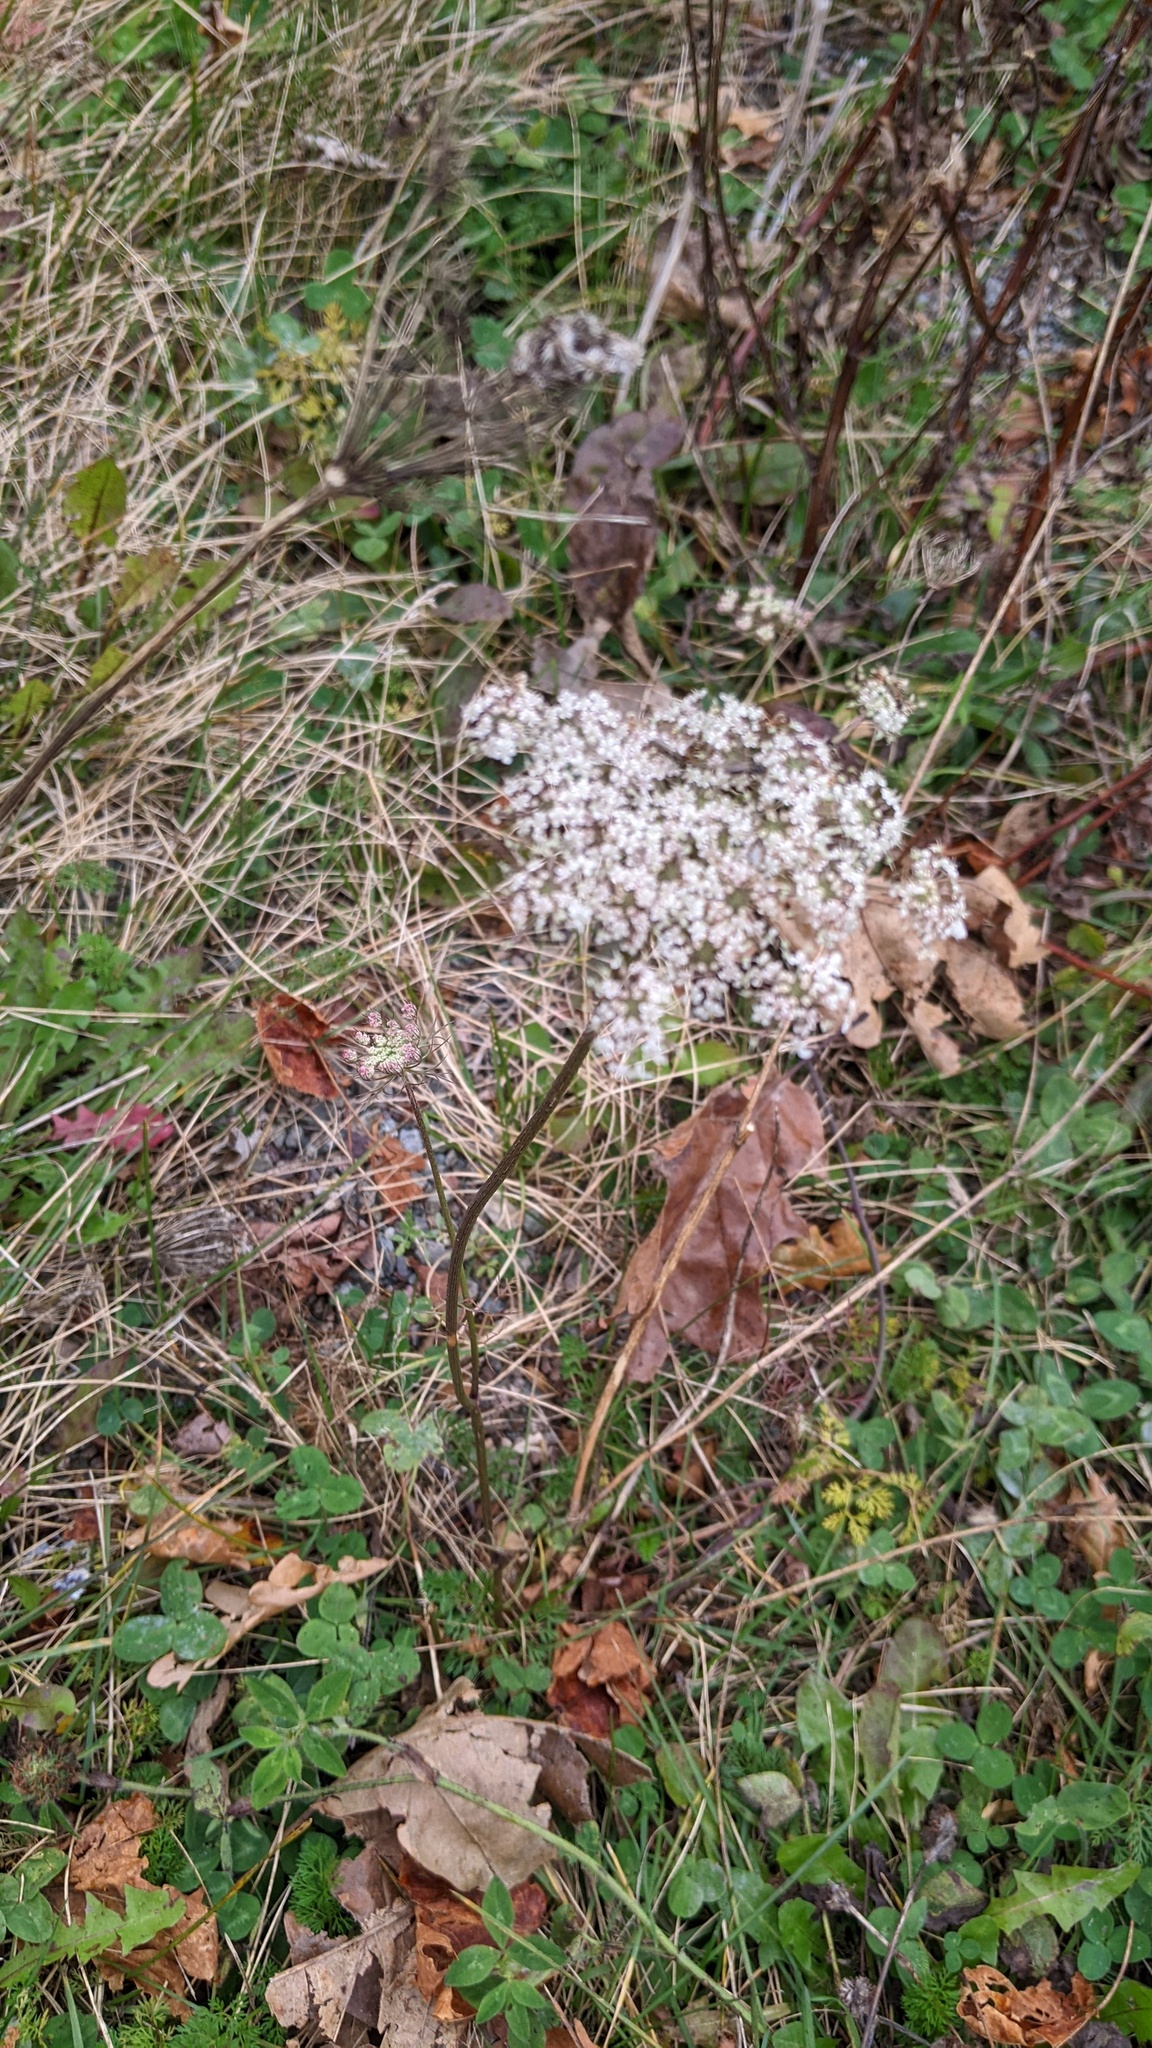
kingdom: Plantae
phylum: Tracheophyta
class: Magnoliopsida
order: Apiales
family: Apiaceae
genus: Daucus
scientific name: Daucus carota
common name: Wild carrot
